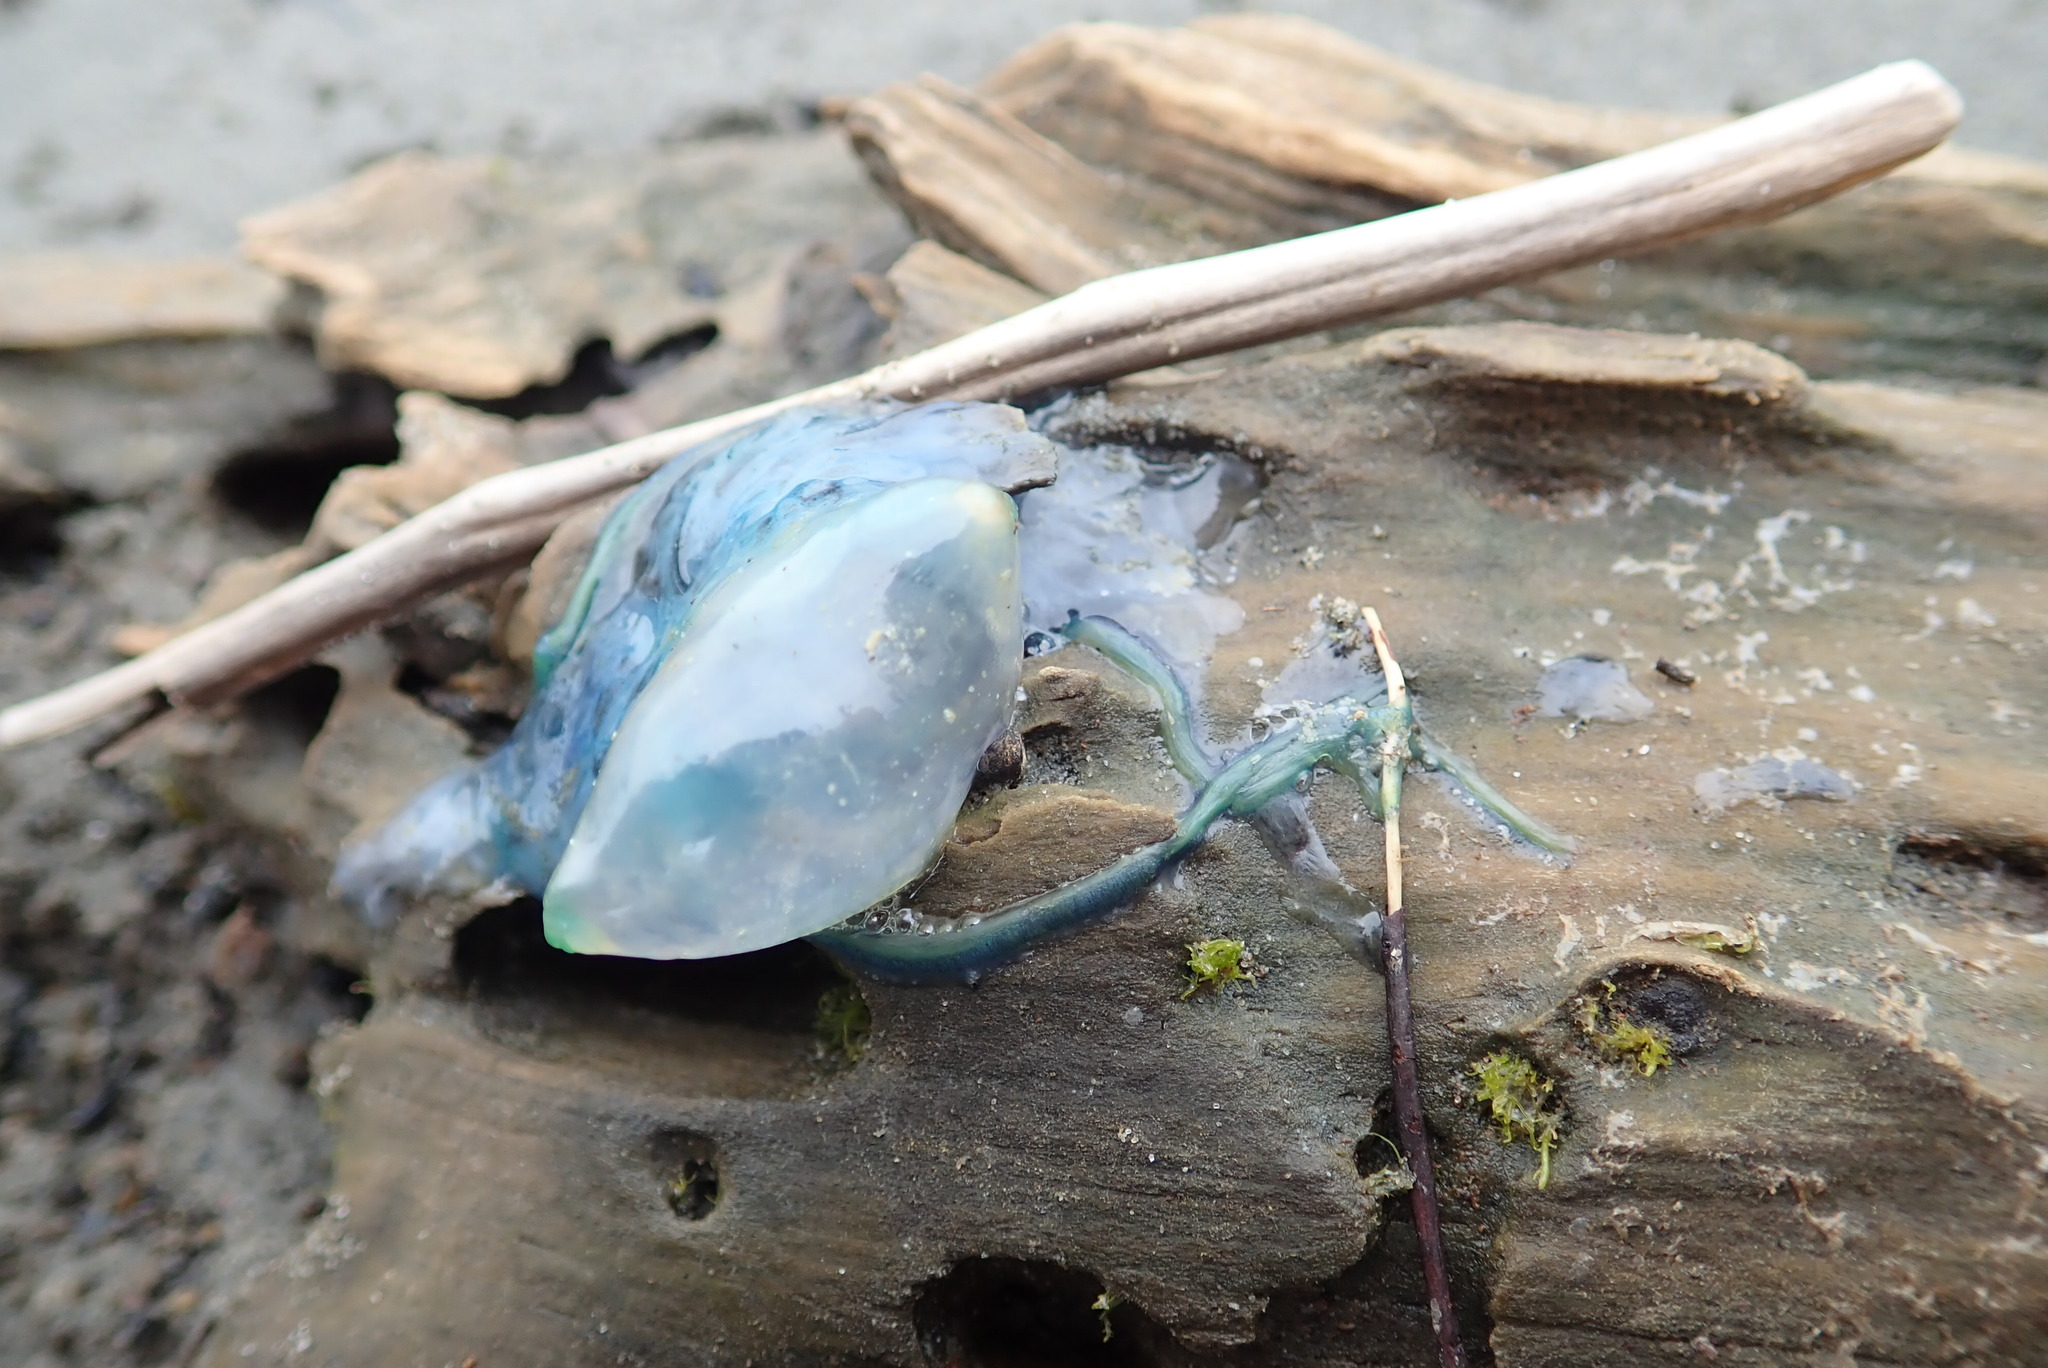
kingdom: Animalia
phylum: Cnidaria
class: Hydrozoa
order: Siphonophorae
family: Physaliidae
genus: Physalia
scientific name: Physalia physalis
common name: Portuguese man-of-war
